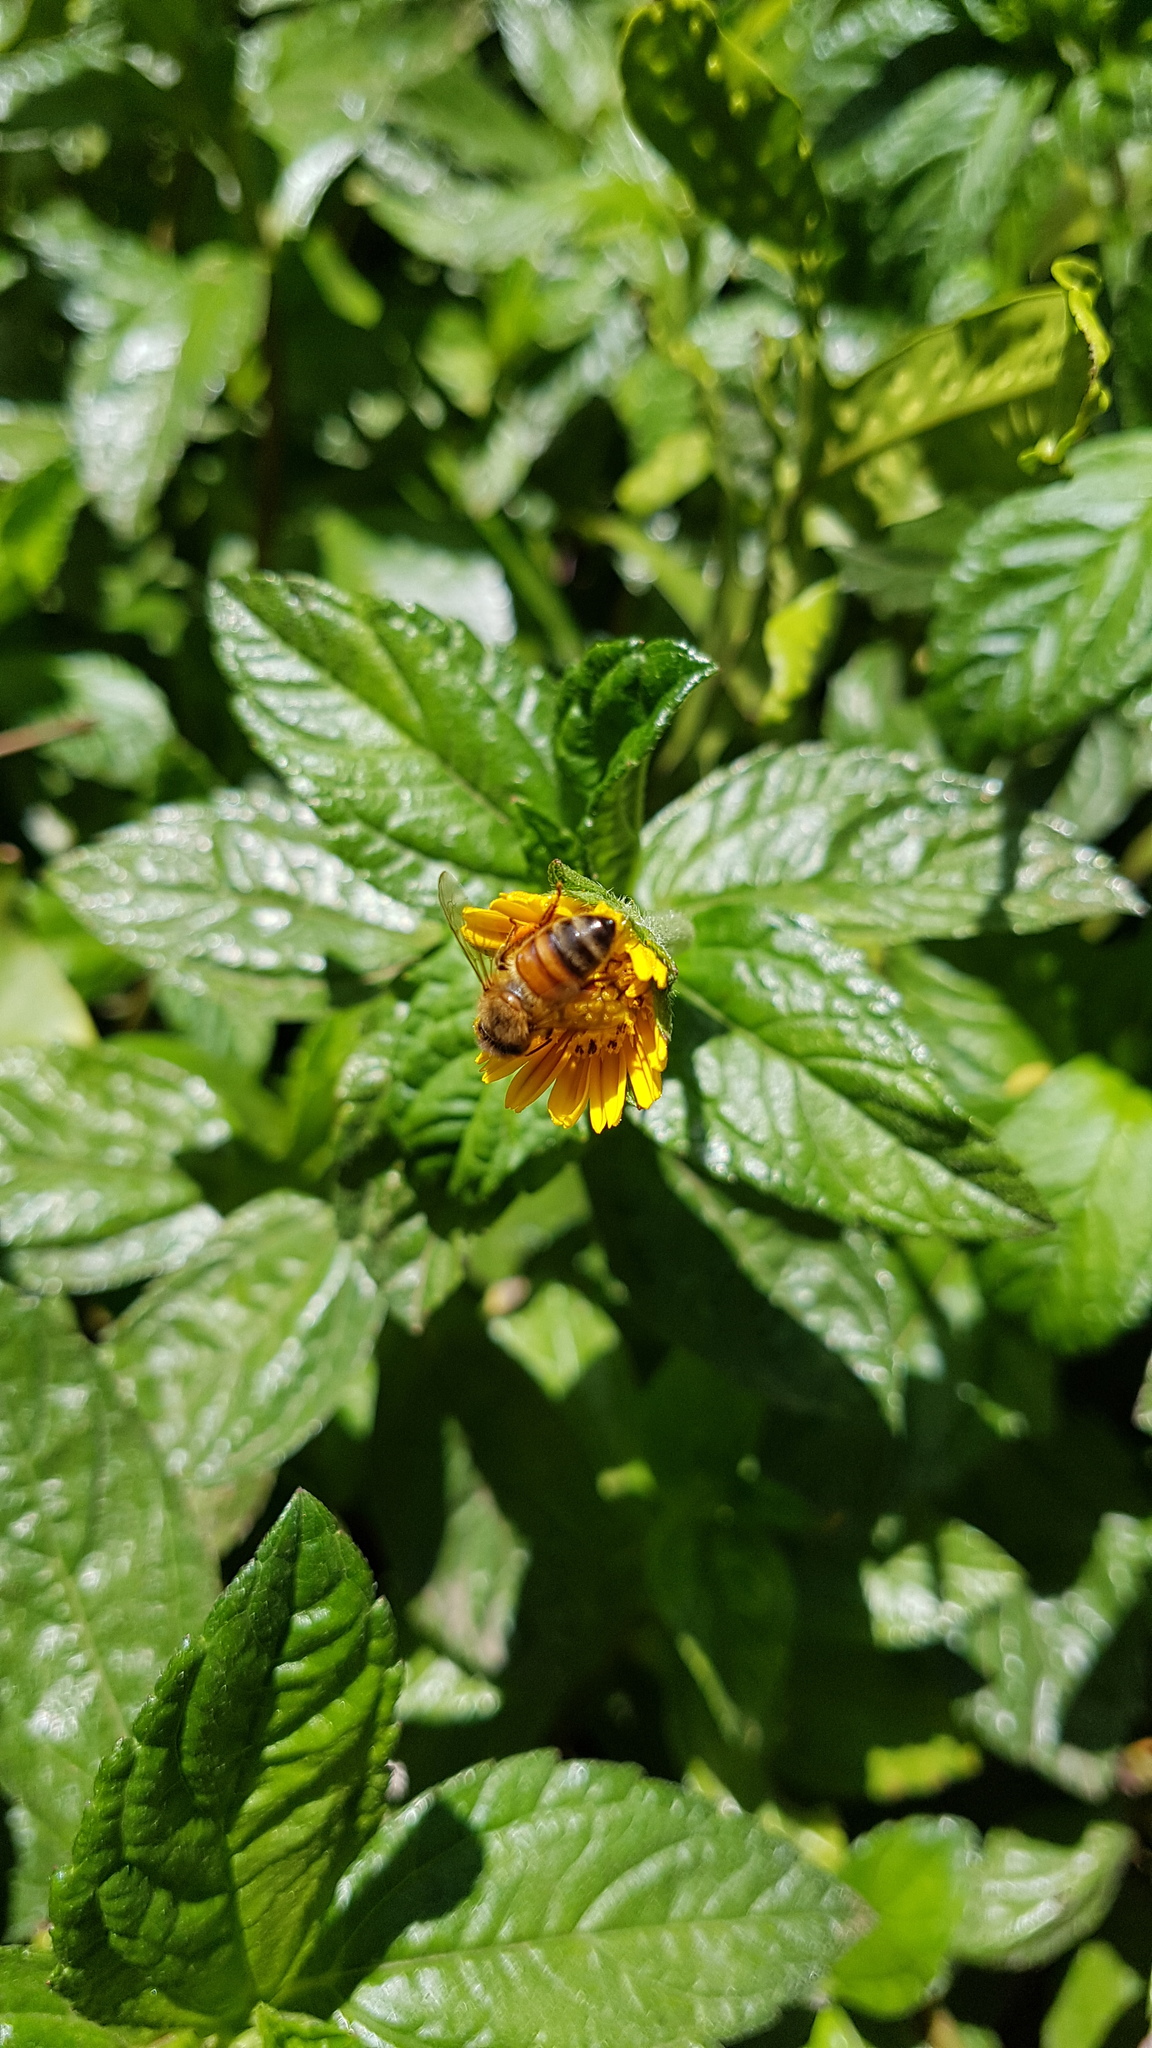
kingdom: Animalia
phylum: Arthropoda
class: Insecta
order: Hymenoptera
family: Apidae
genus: Apis
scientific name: Apis mellifera
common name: Honey bee
